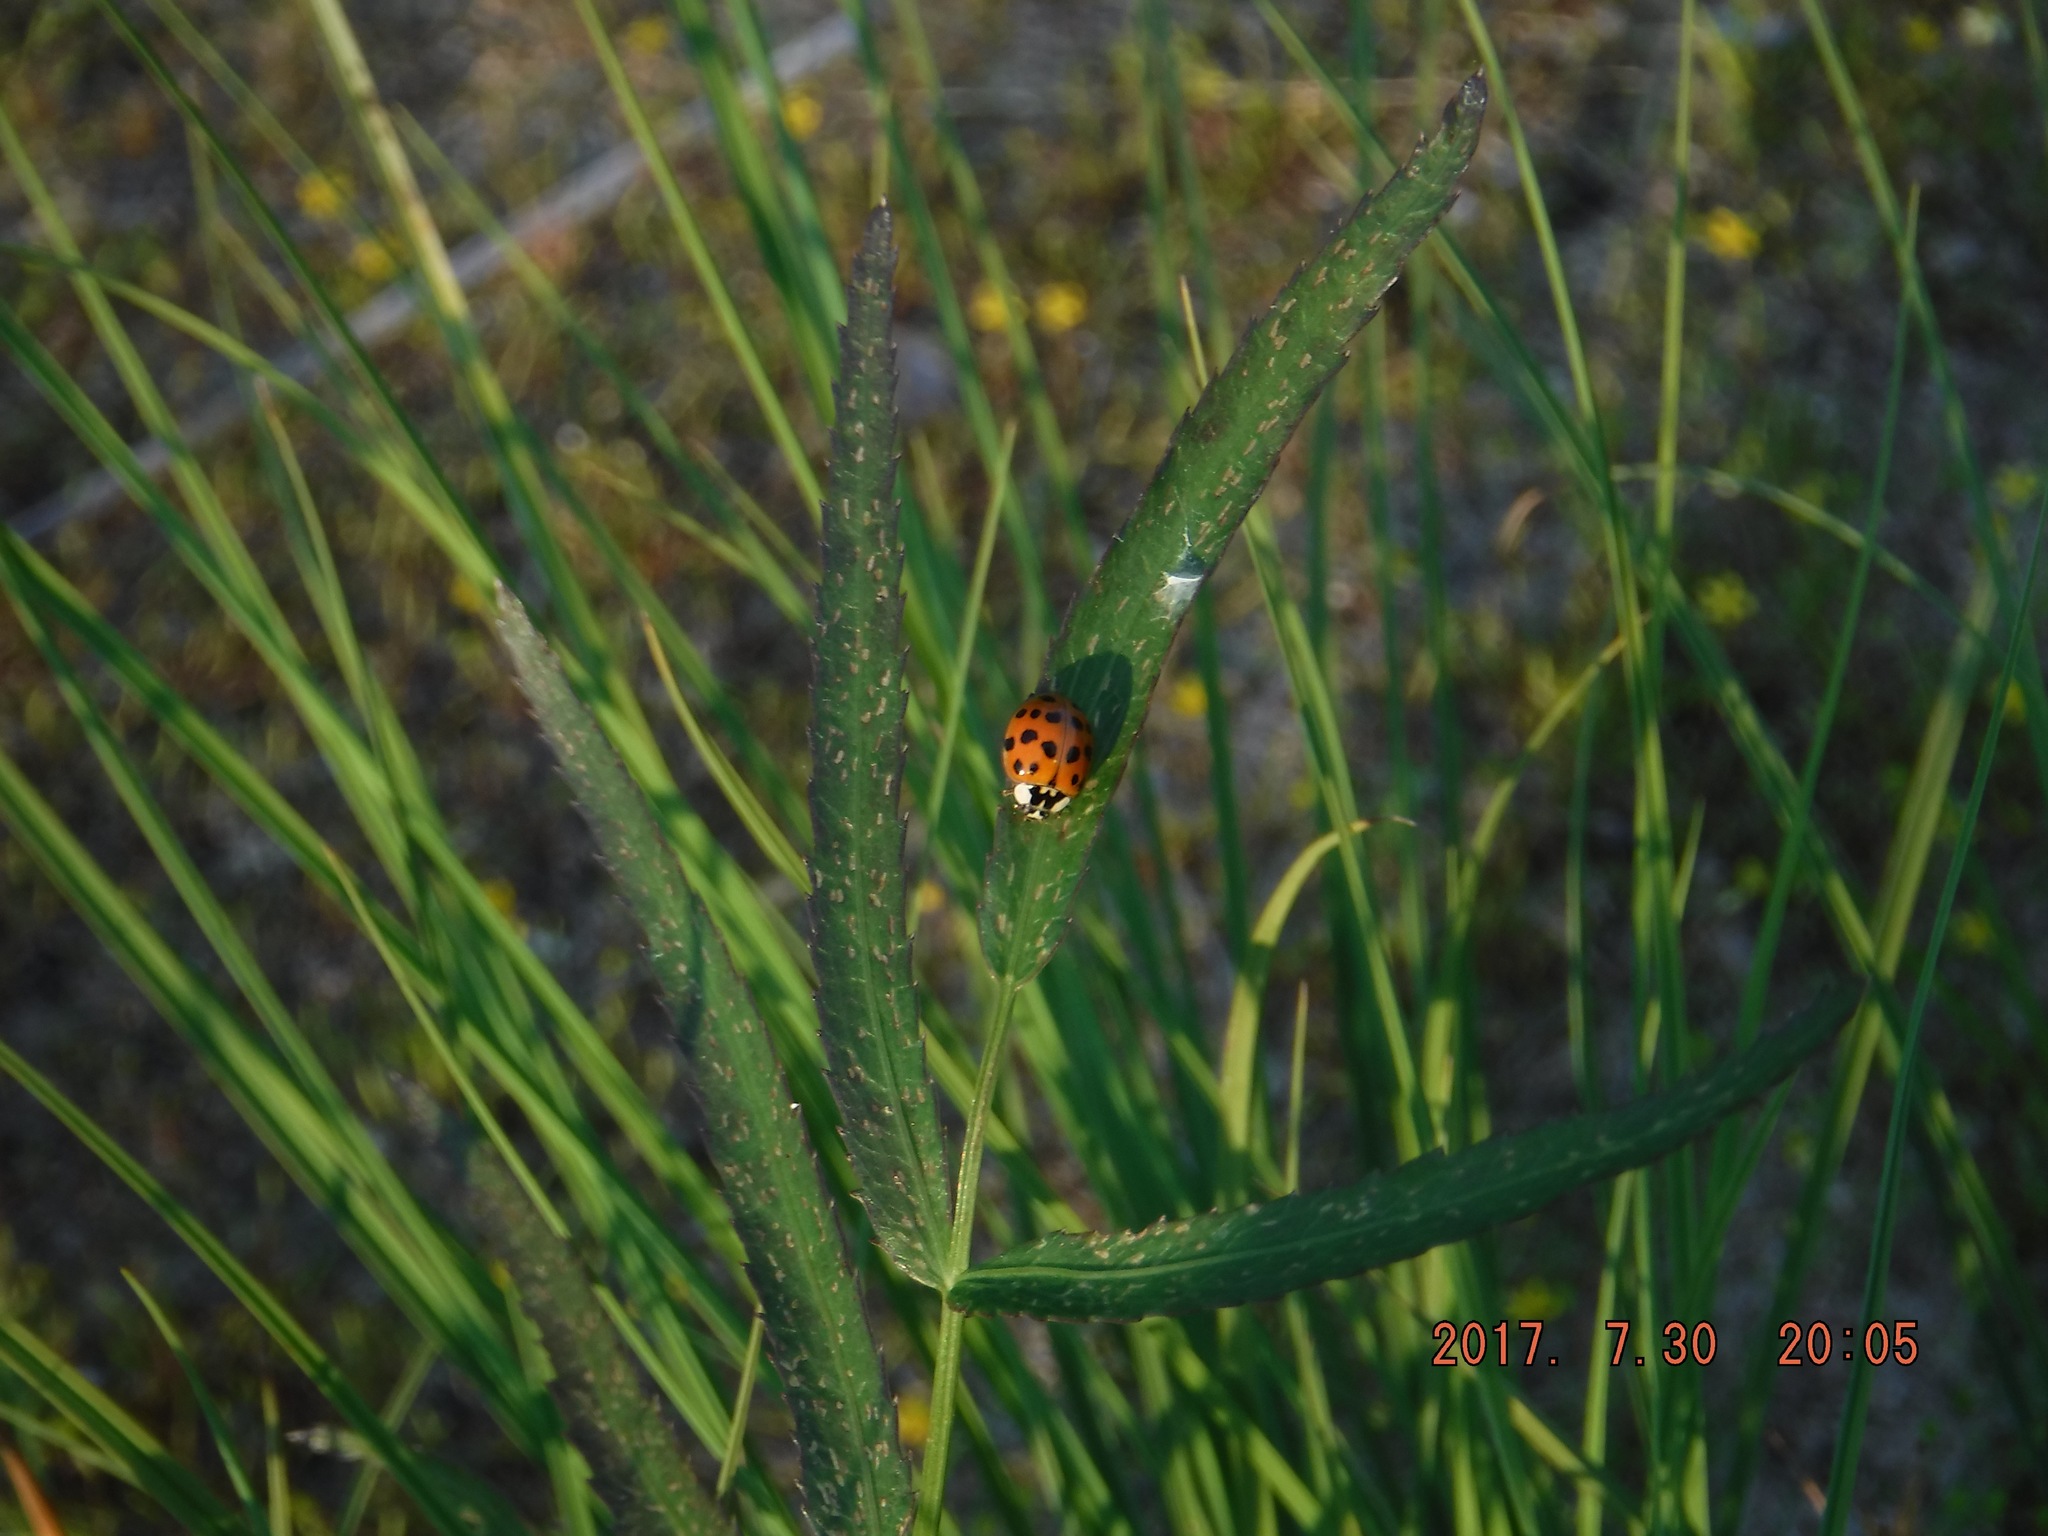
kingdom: Animalia
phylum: Arthropoda
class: Insecta
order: Coleoptera
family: Coccinellidae
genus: Harmonia
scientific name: Harmonia axyridis
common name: Harlequin ladybird
